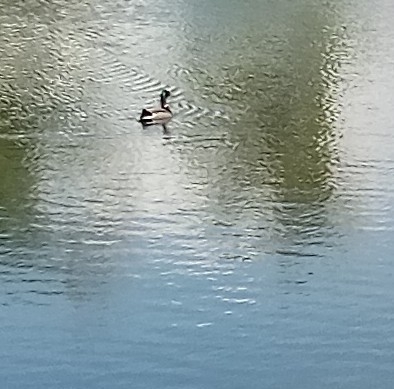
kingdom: Animalia
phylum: Chordata
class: Aves
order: Anseriformes
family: Anatidae
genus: Anas
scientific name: Anas platyrhynchos
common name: Mallard
